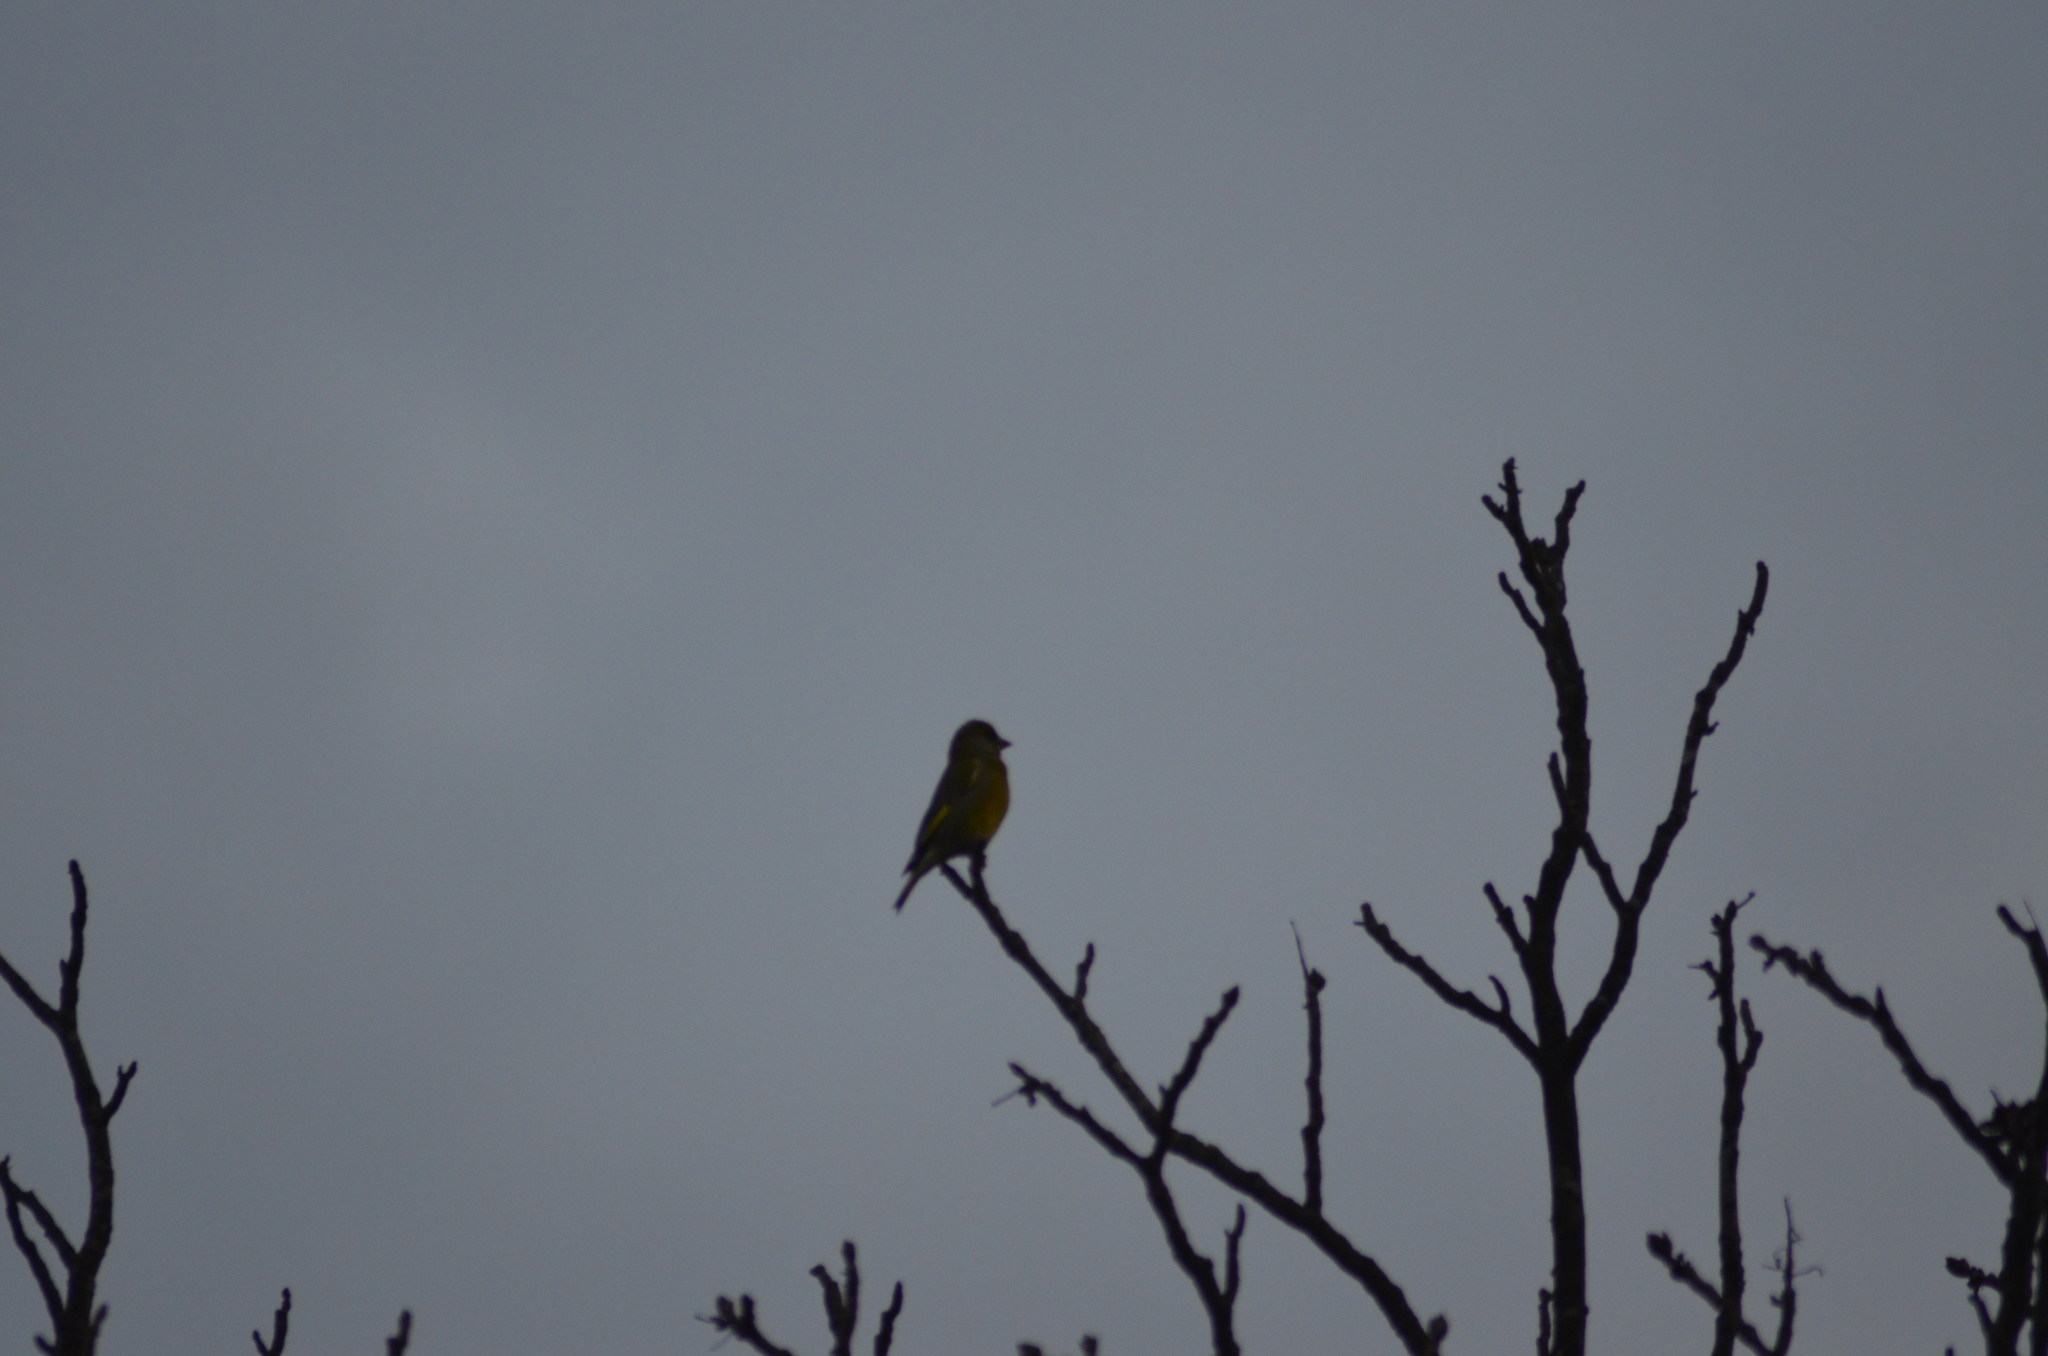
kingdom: Plantae
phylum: Tracheophyta
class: Liliopsida
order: Poales
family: Poaceae
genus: Chloris
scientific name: Chloris chloris
